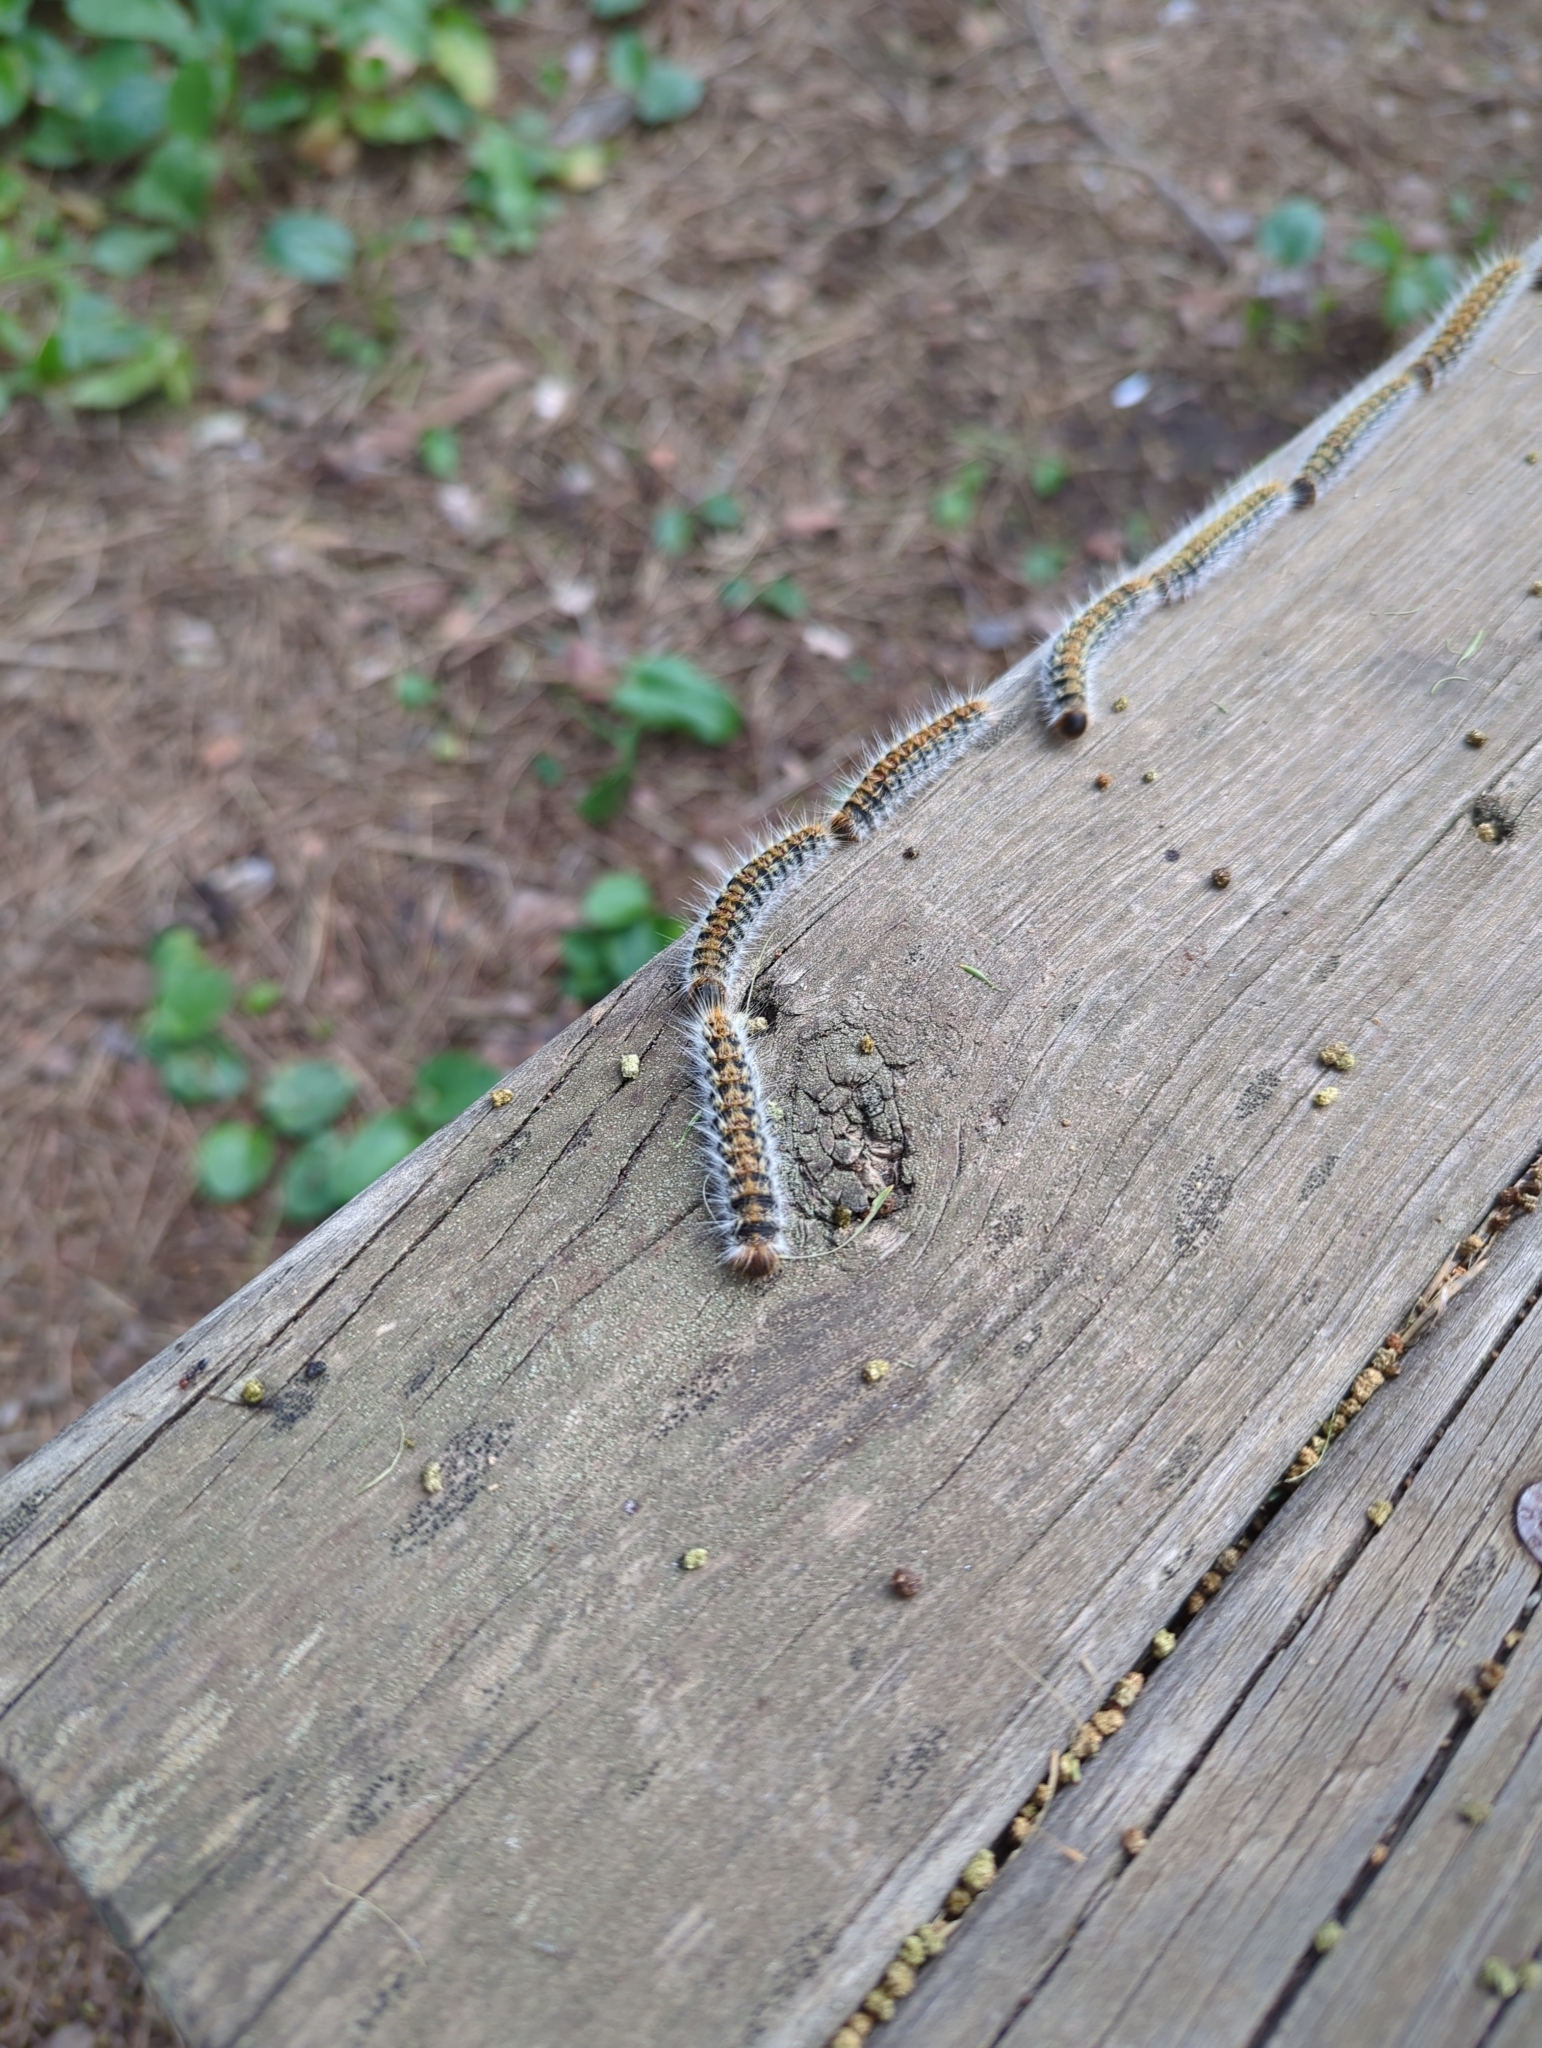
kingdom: Animalia
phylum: Arthropoda
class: Insecta
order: Lepidoptera
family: Notodontidae
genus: Thaumetopoea
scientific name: Thaumetopoea pityocampa
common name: Pine processionary
